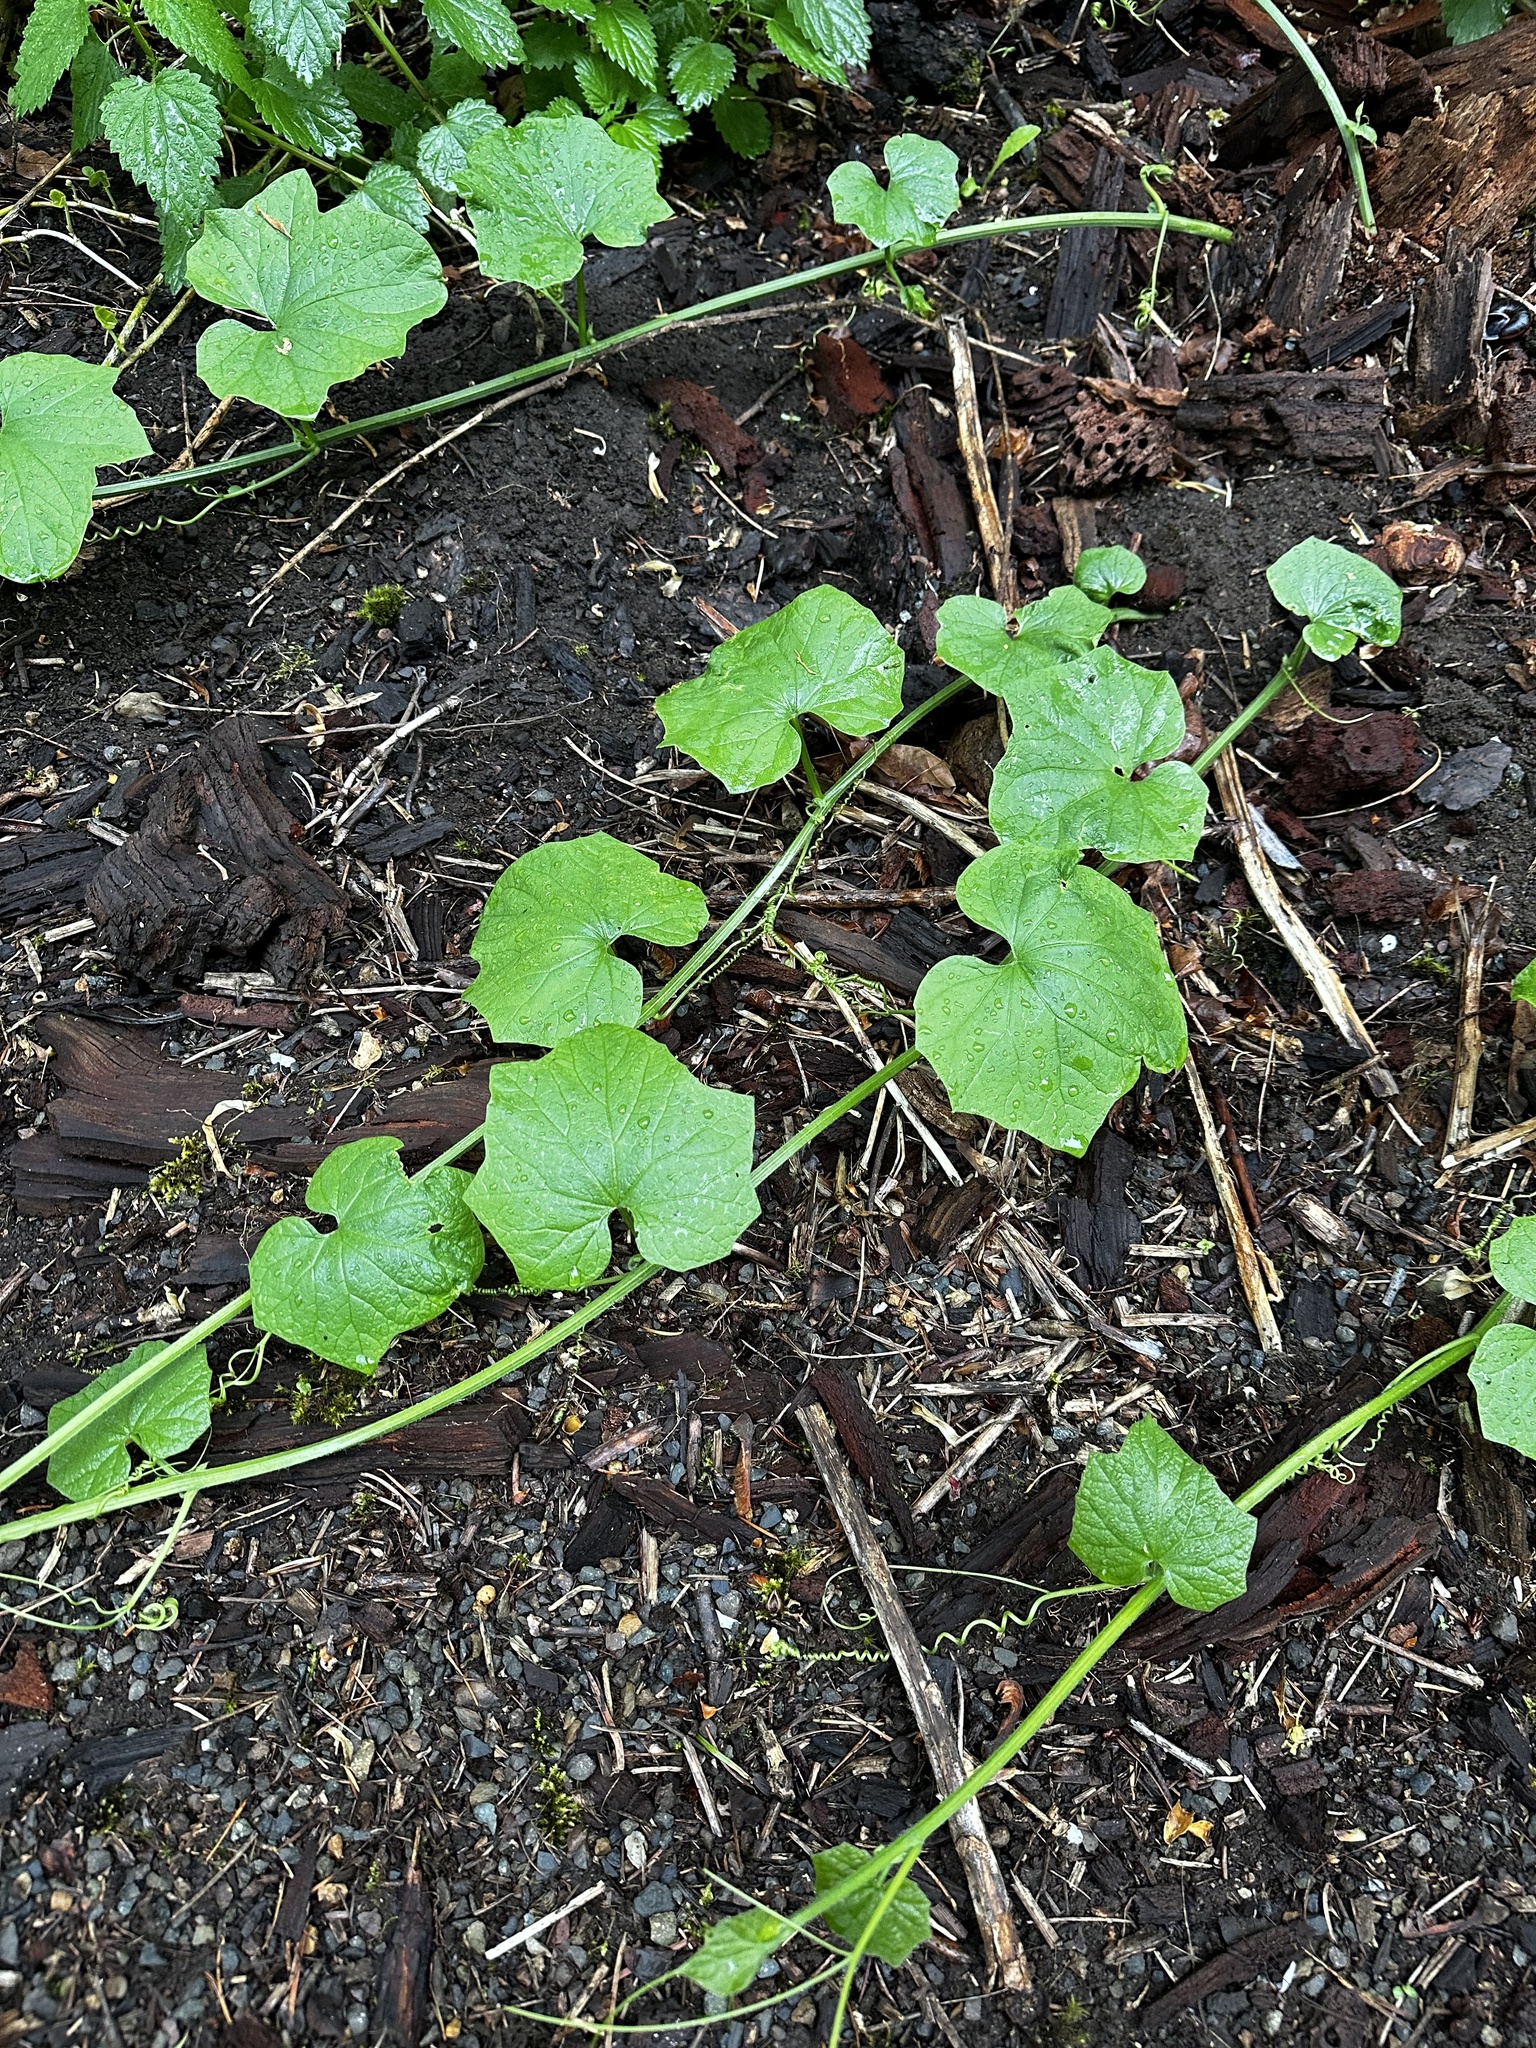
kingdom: Plantae
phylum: Tracheophyta
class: Magnoliopsida
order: Cucurbitales
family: Cucurbitaceae
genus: Marah
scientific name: Marah oregana
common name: Coastal manroot
